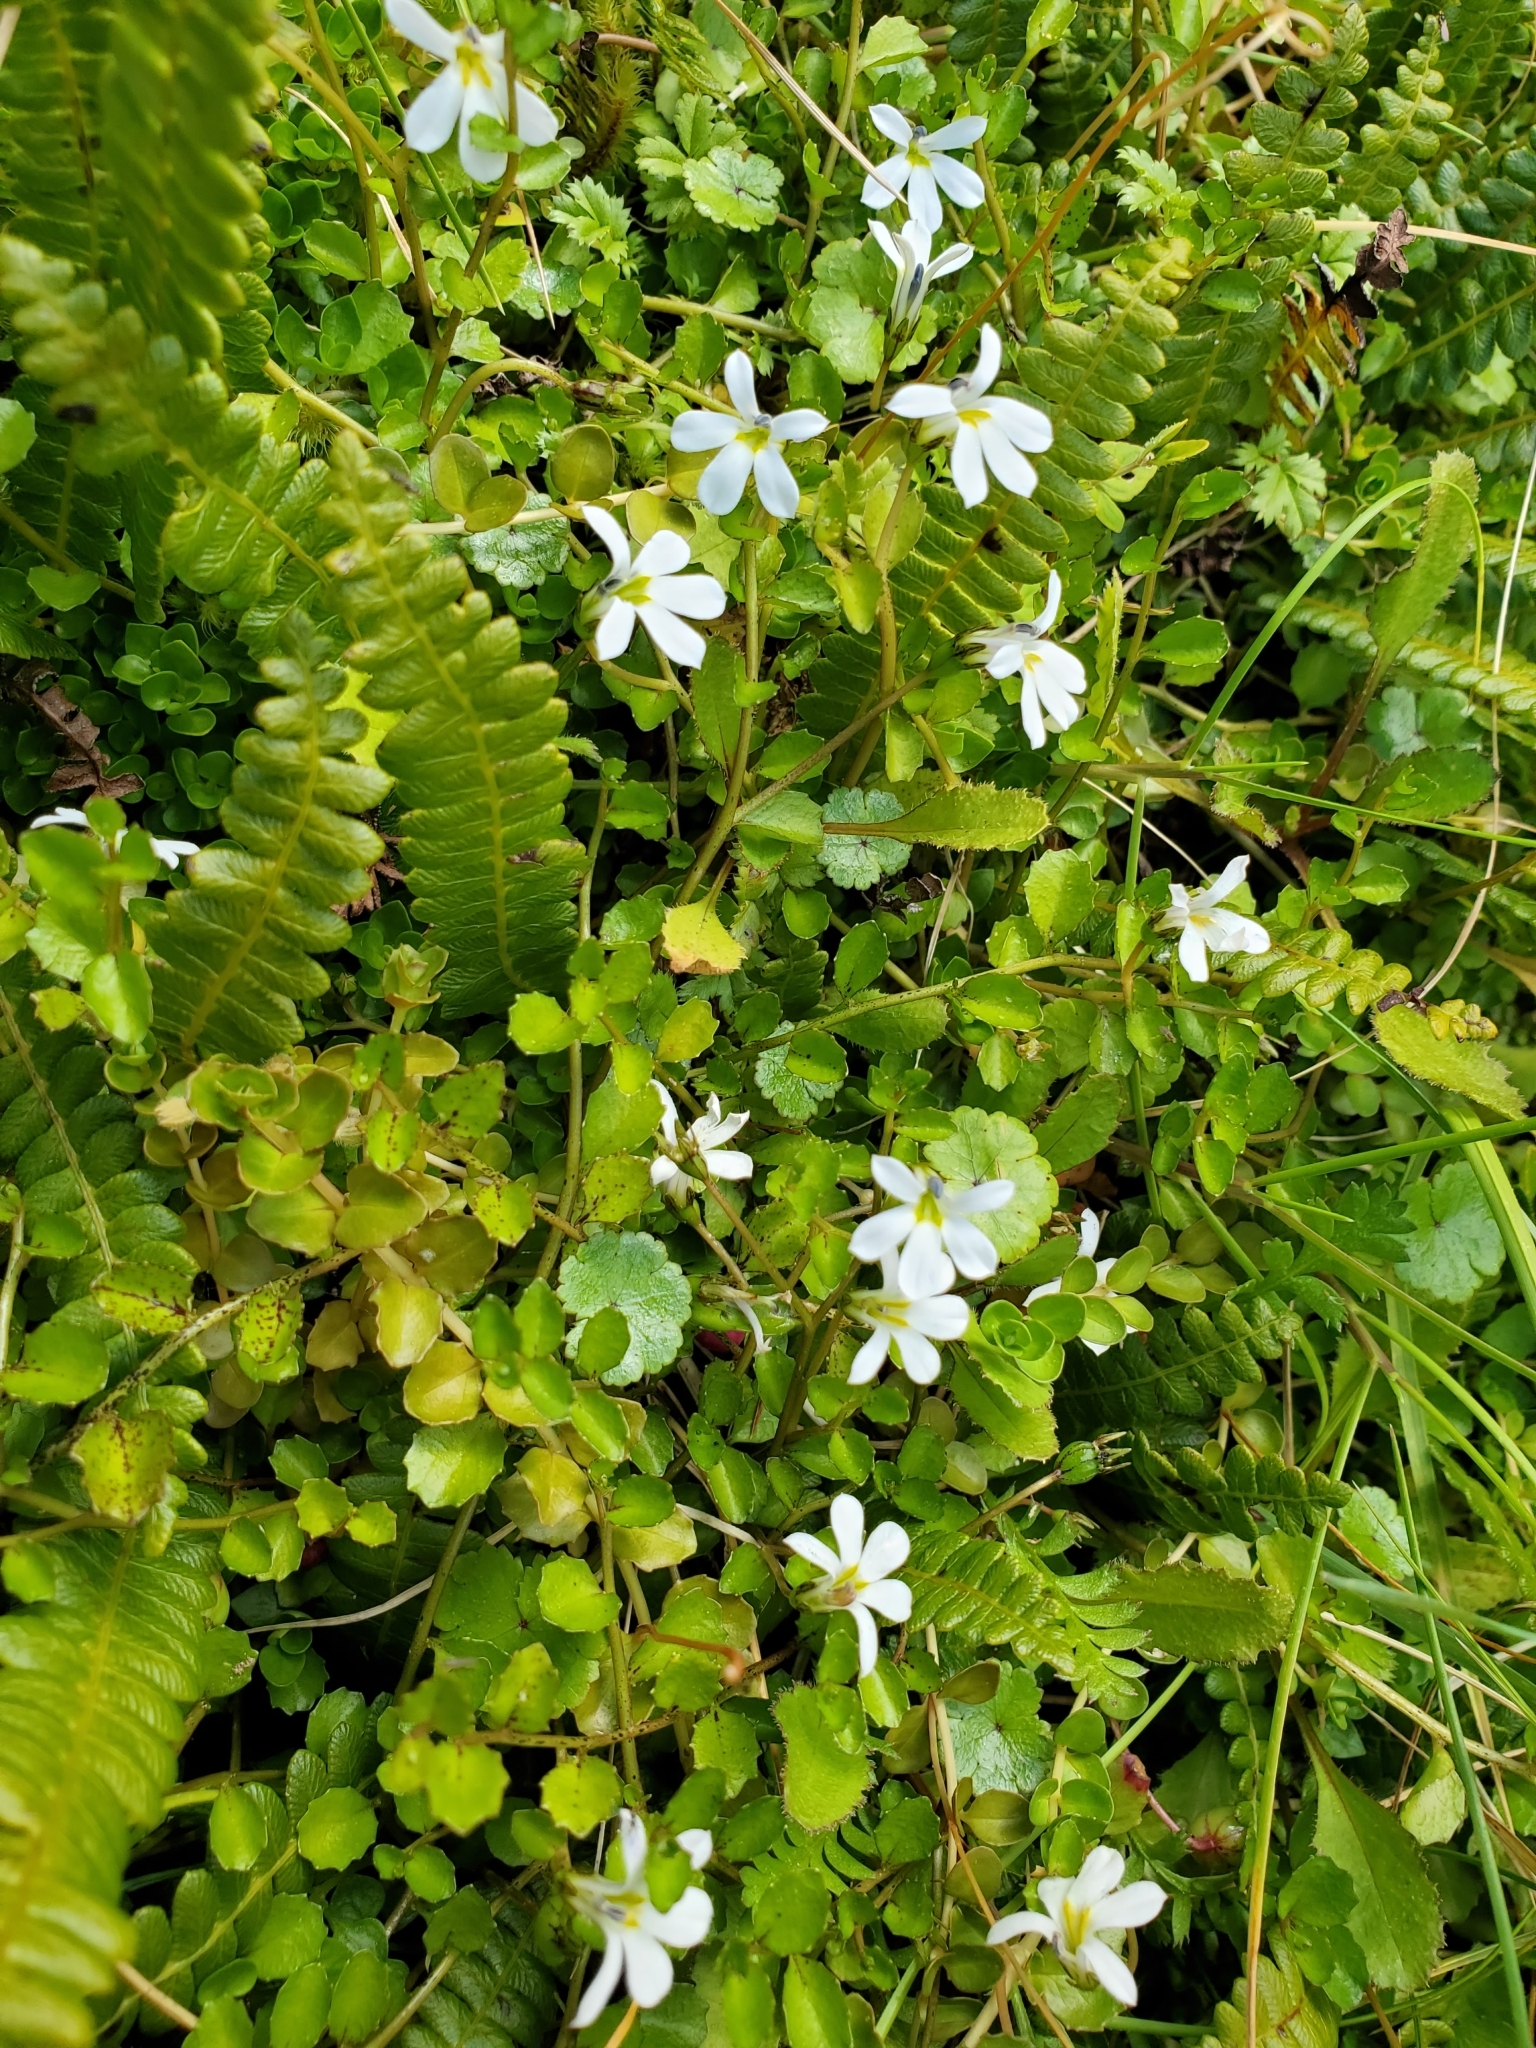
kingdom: Plantae
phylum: Tracheophyta
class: Magnoliopsida
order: Asterales
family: Campanulaceae
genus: Lobelia
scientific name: Lobelia angulata
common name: Lawn lobelia
